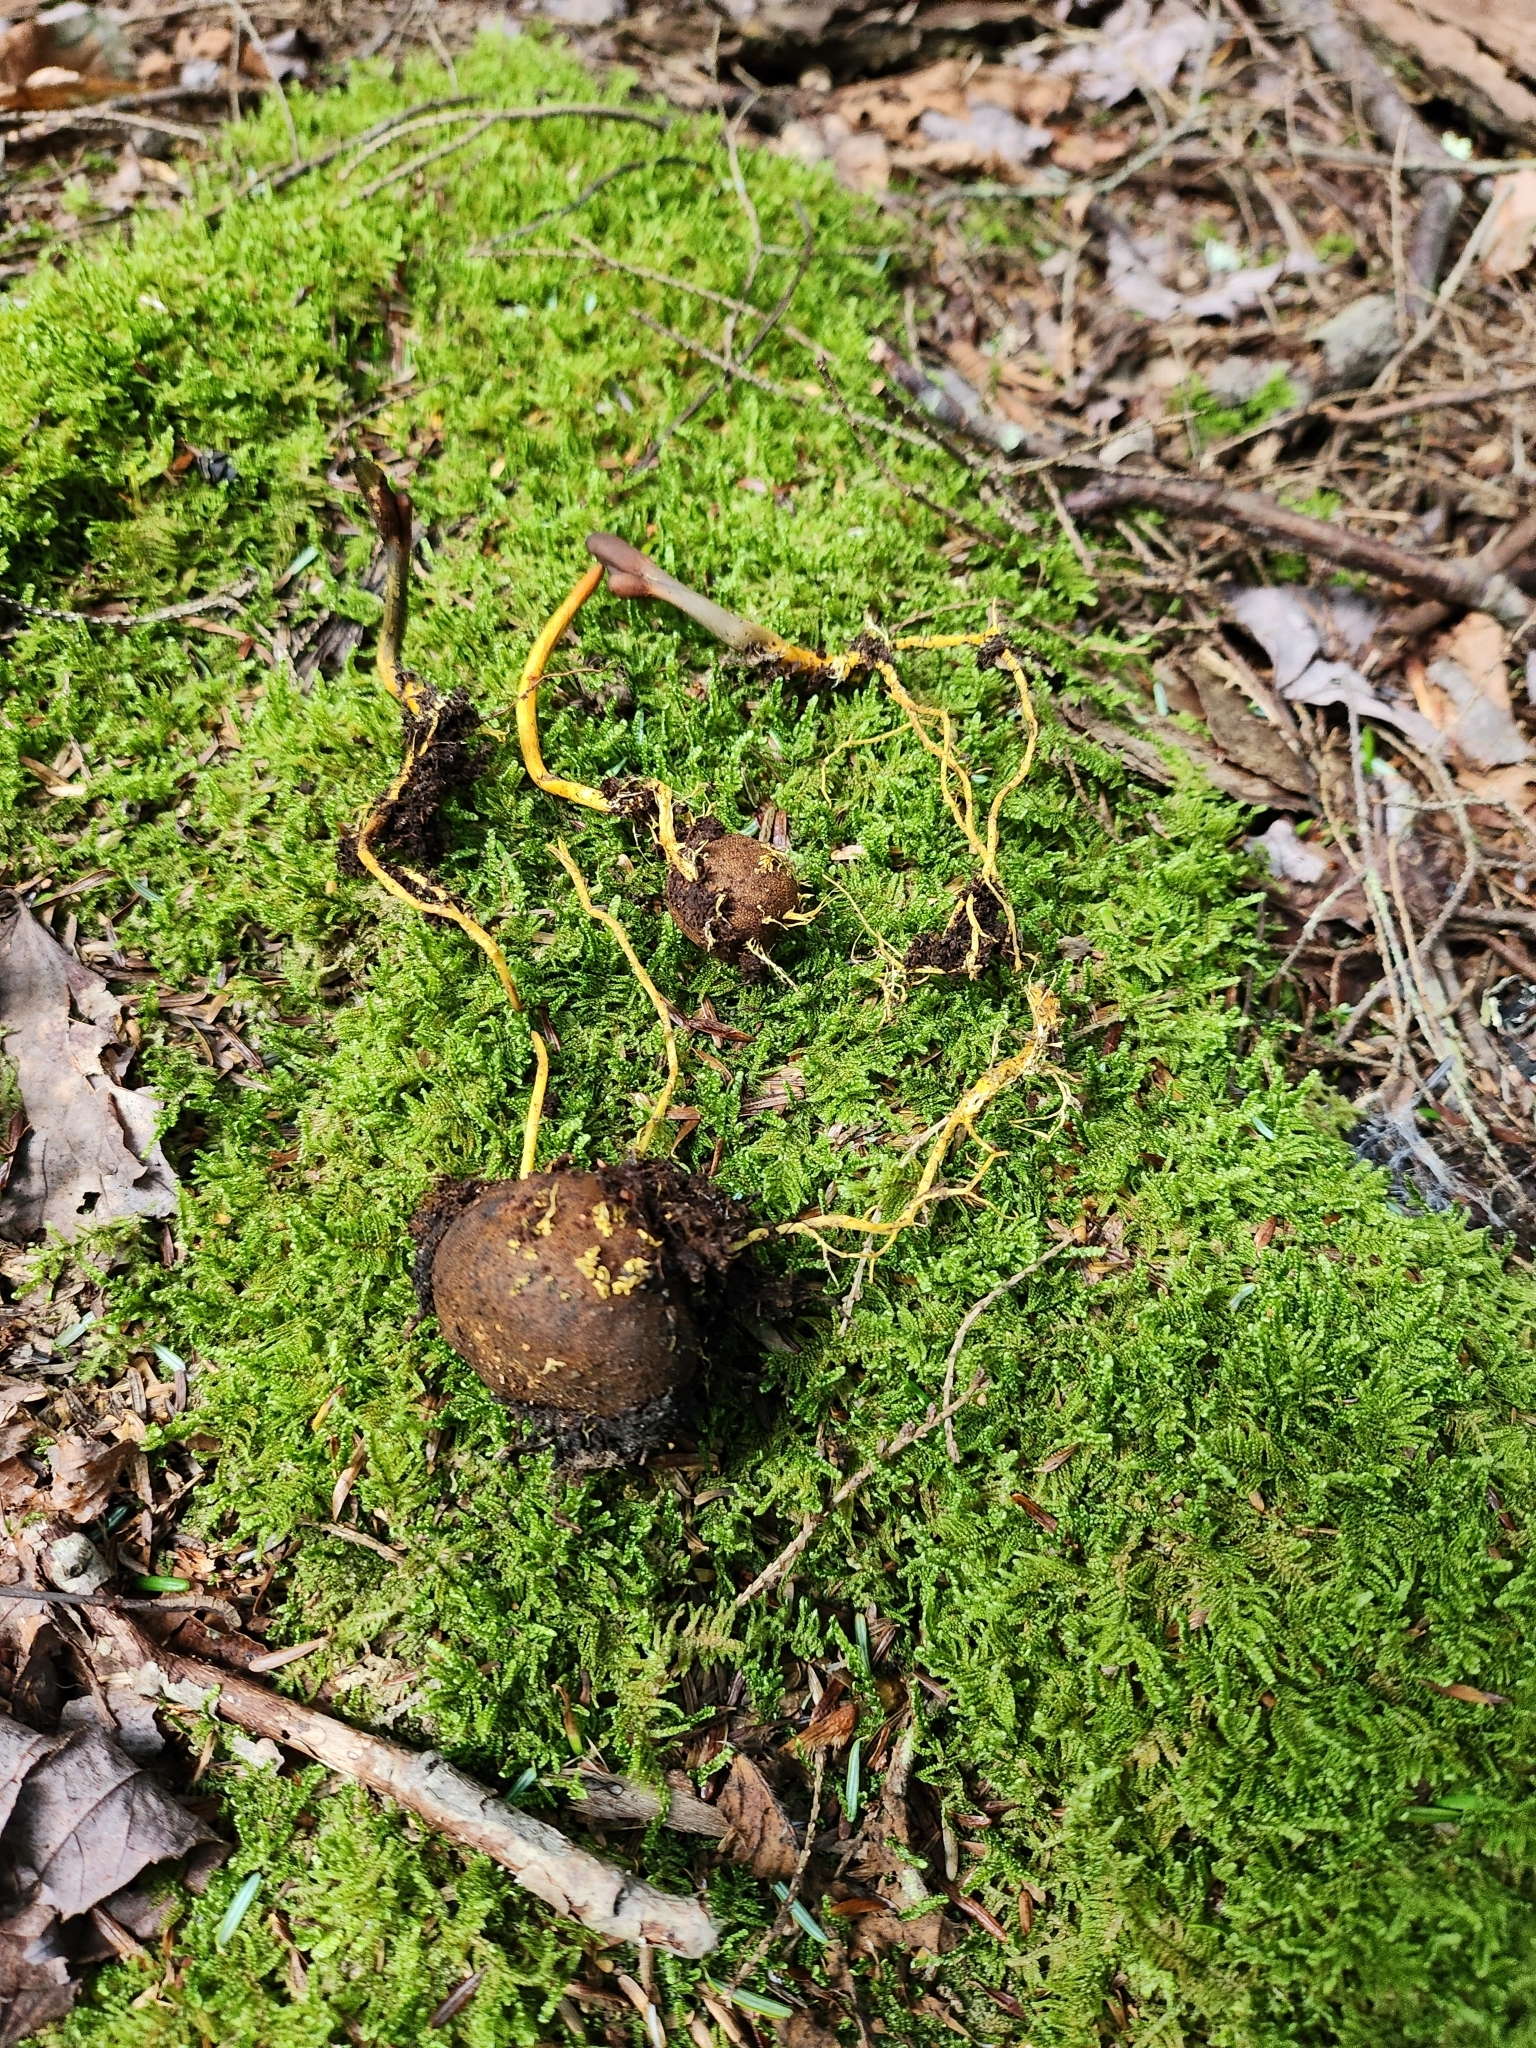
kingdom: Fungi
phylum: Ascomycota
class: Sordariomycetes
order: Hypocreales
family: Ophiocordycipitaceae
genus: Tolypocladium
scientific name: Tolypocladium ophioglossoides
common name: Snaketongue truffleclub
